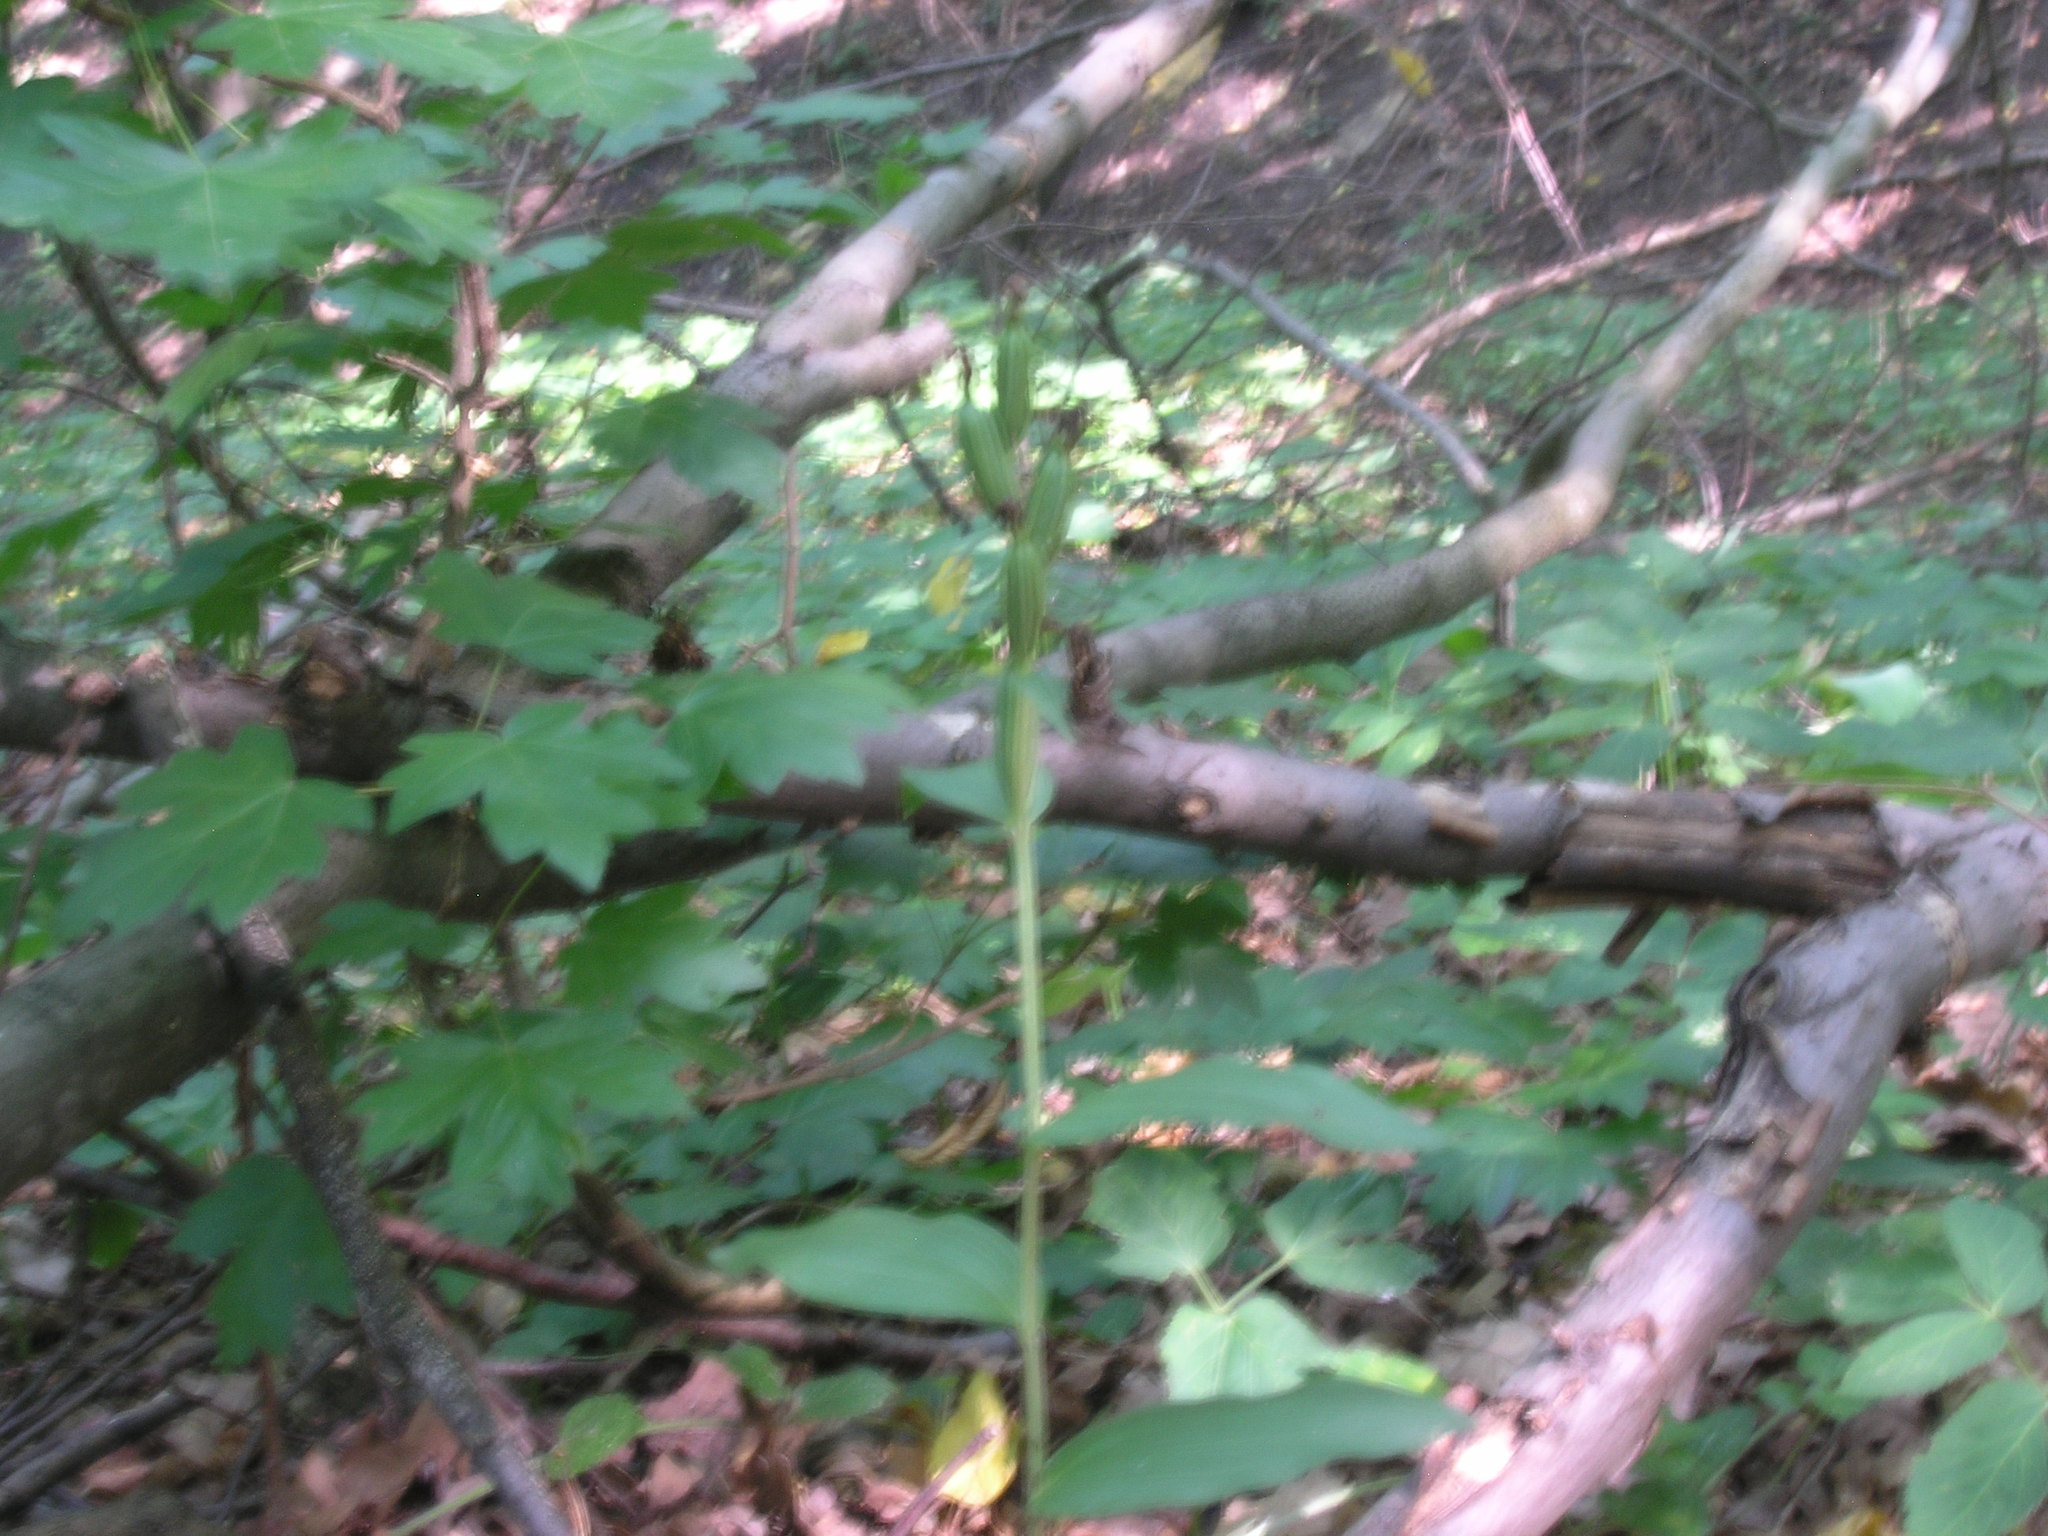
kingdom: Plantae
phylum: Tracheophyta
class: Liliopsida
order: Asparagales
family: Orchidaceae
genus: Cephalanthera
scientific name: Cephalanthera damasonium
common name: White helleborine
